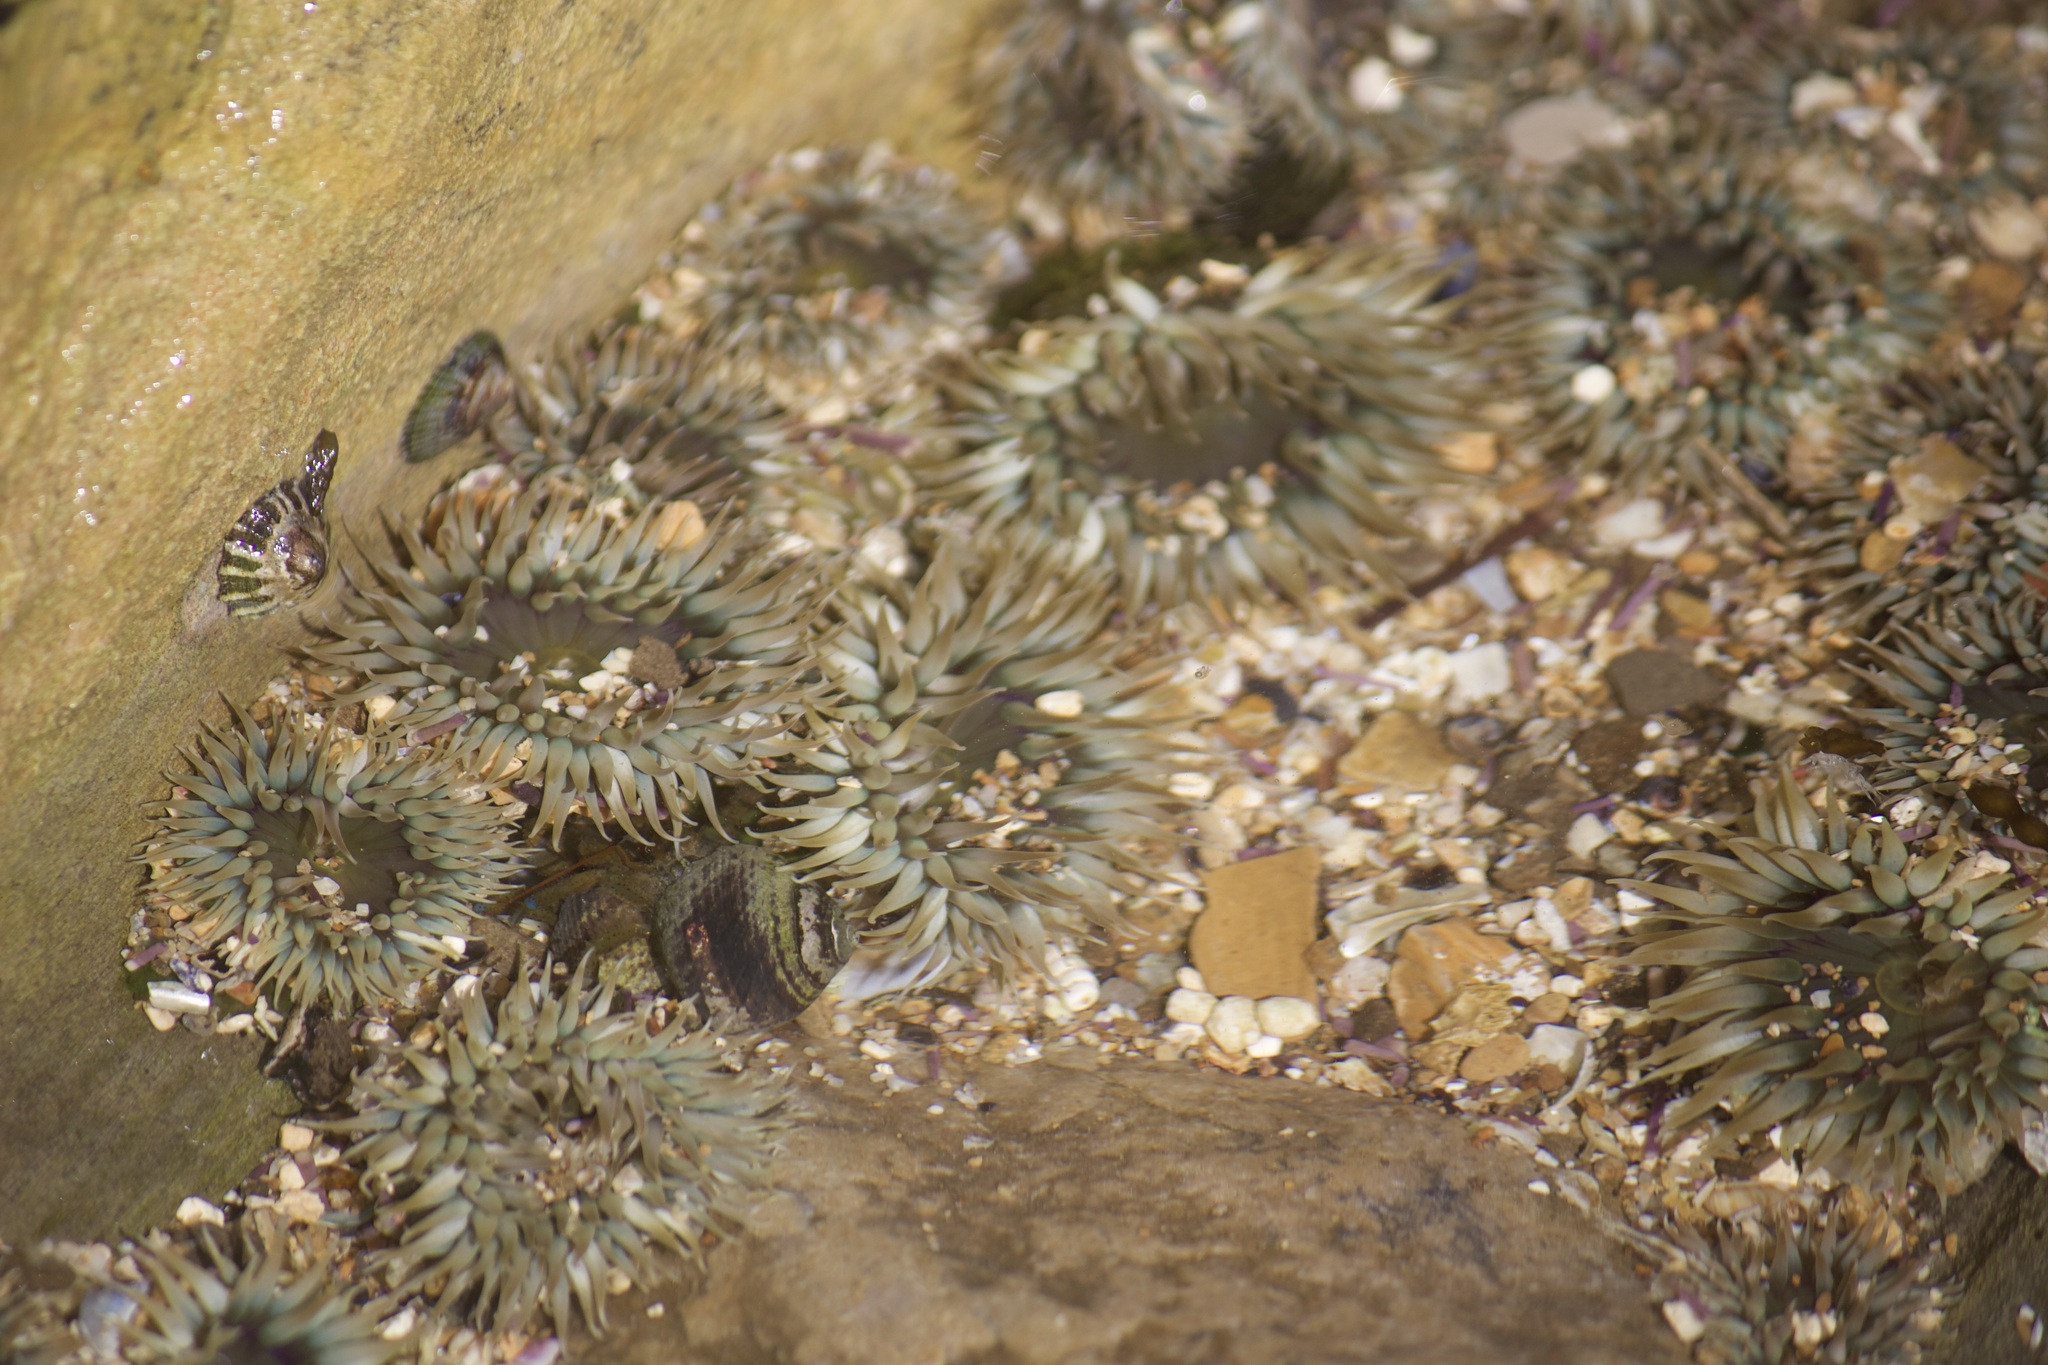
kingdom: Animalia
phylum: Cnidaria
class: Anthozoa
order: Actiniaria
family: Actiniidae
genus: Anthopleura
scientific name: Anthopleura elegantissima
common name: Clonal anemone
